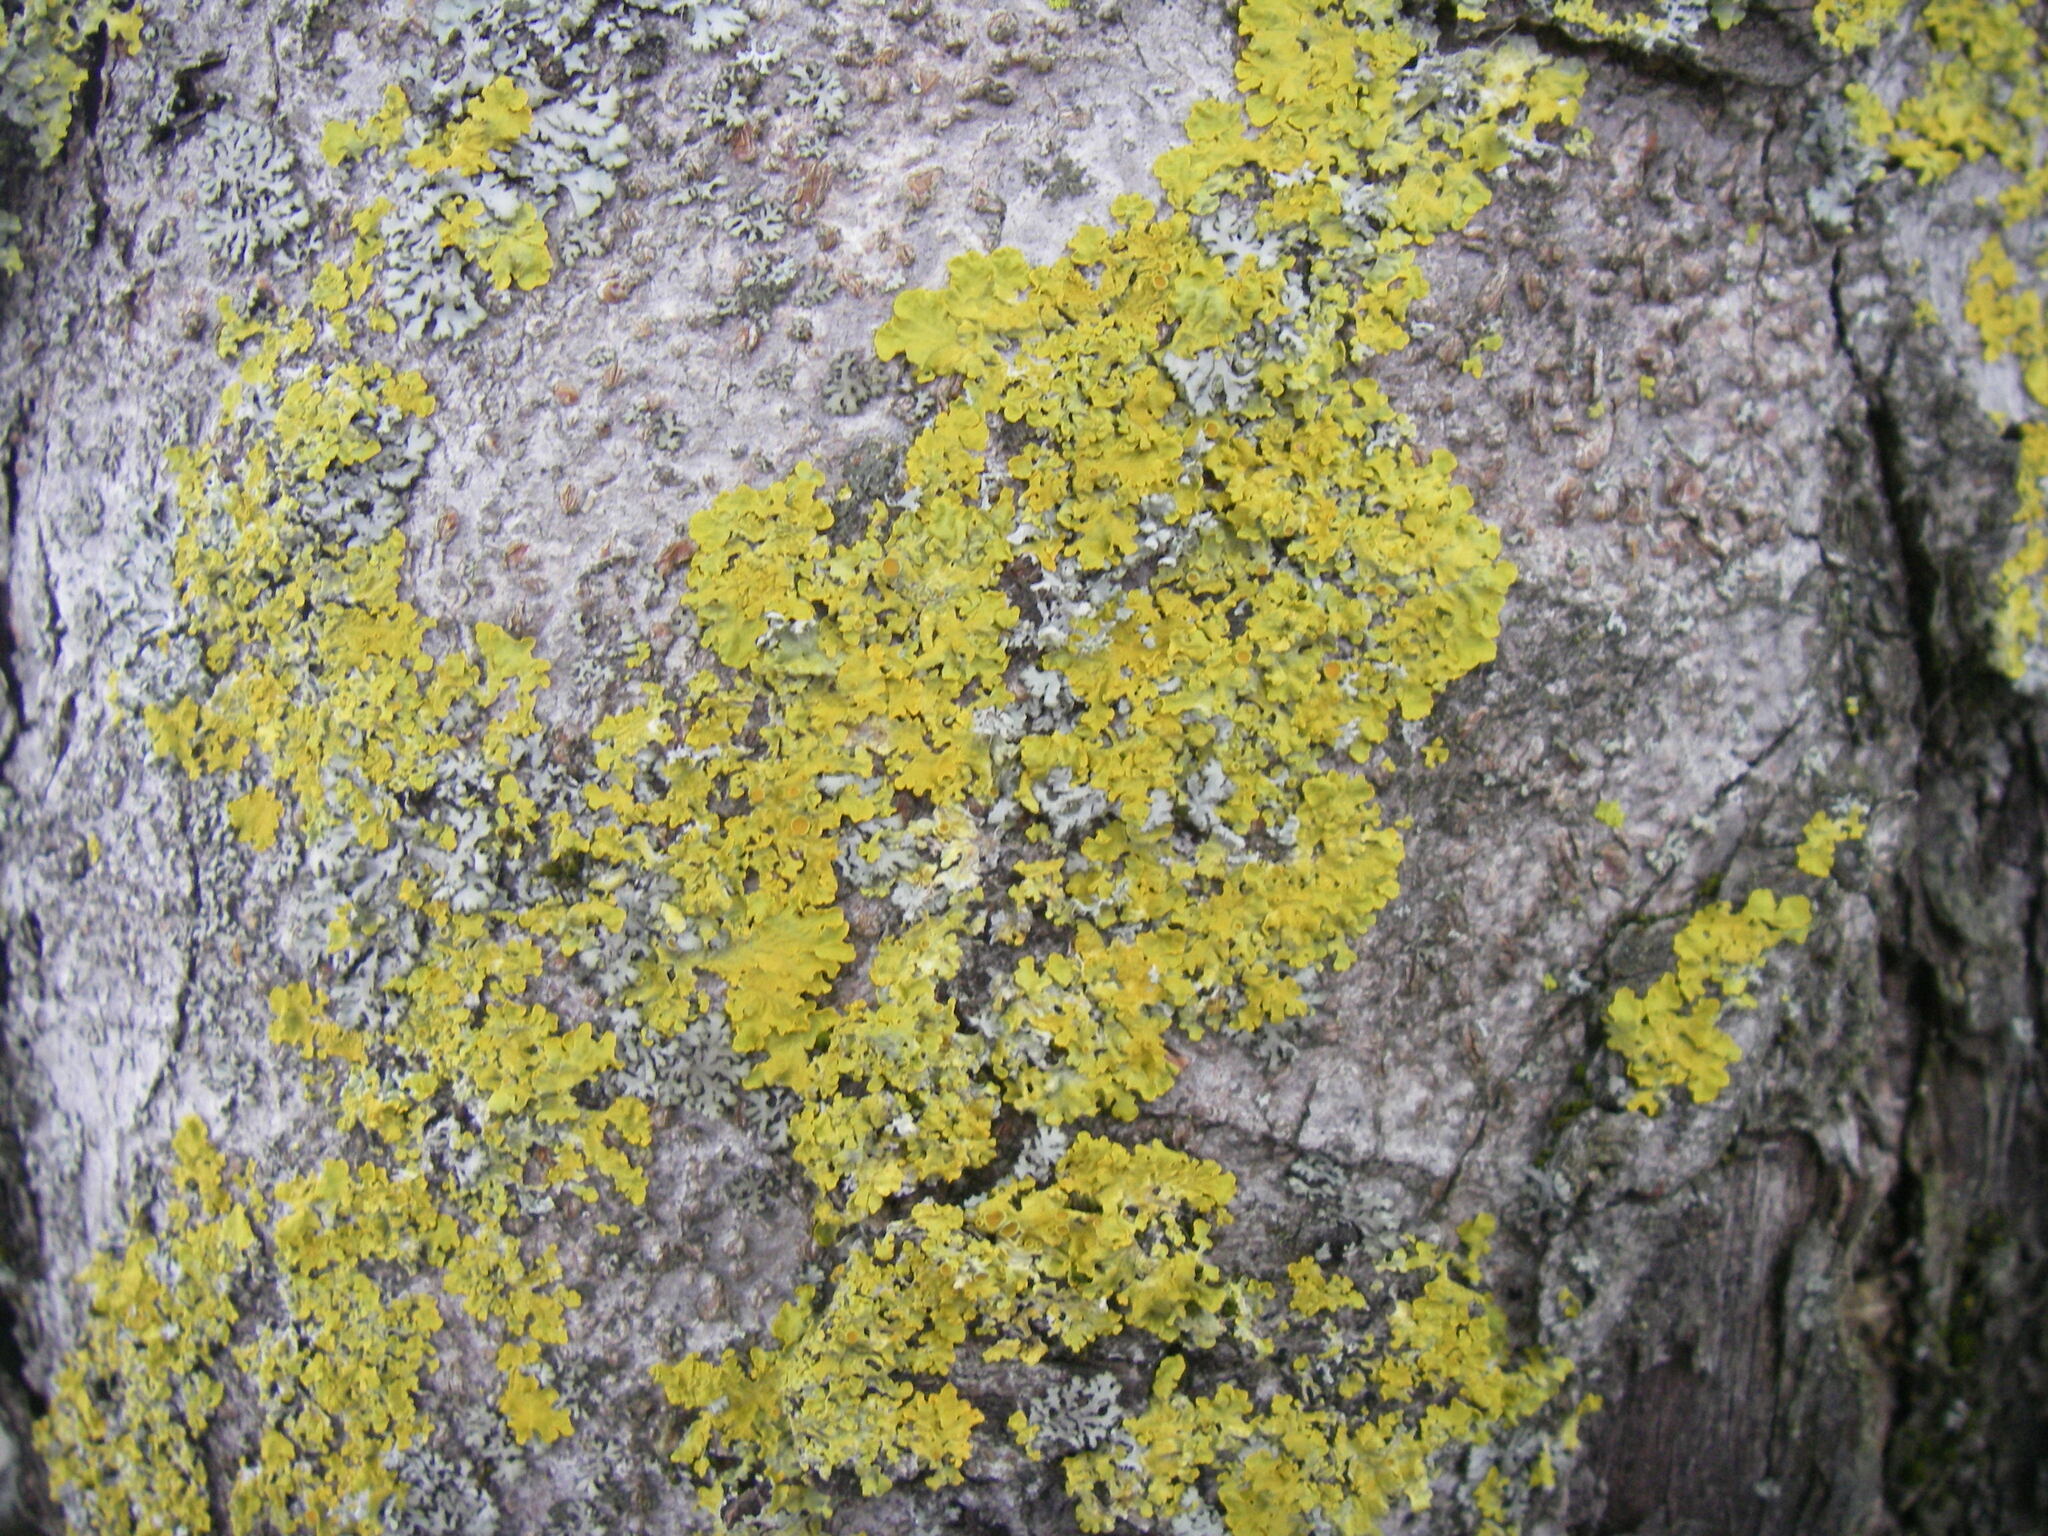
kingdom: Fungi
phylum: Ascomycota
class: Lecanoromycetes
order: Teloschistales
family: Teloschistaceae
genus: Xanthoria
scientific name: Xanthoria parietina
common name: Common orange lichen
